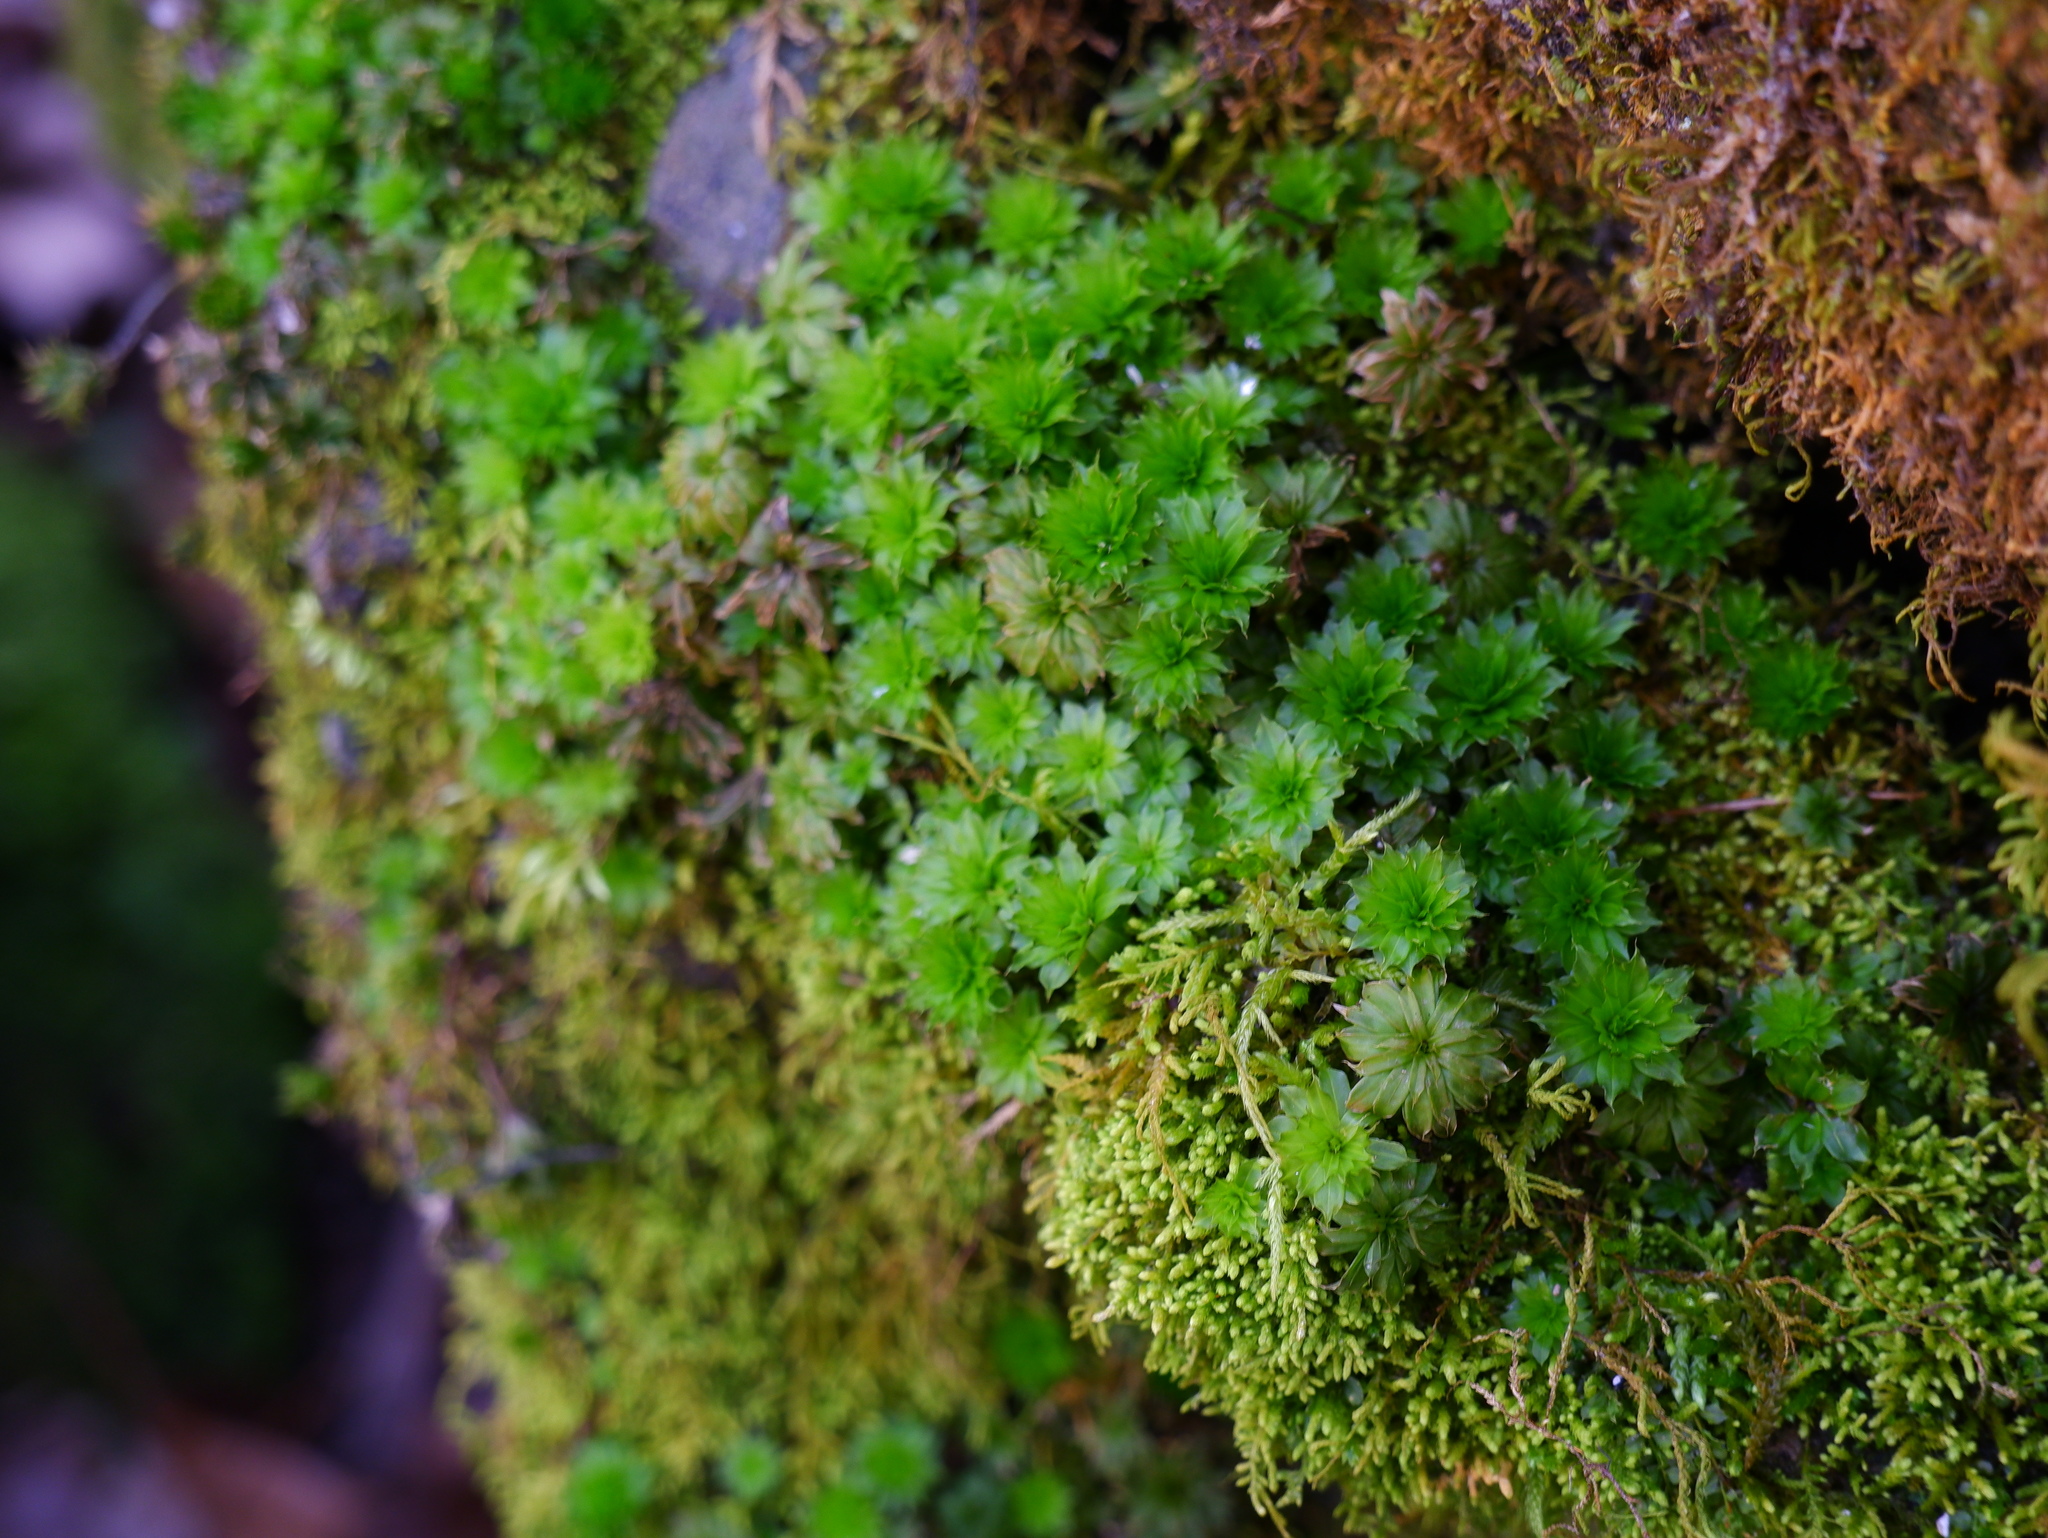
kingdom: Plantae
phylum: Bryophyta
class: Bryopsida
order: Bryales
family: Bryaceae
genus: Rhodobryum
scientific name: Rhodobryum ontariense
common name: Ontario rhodobryum moss
